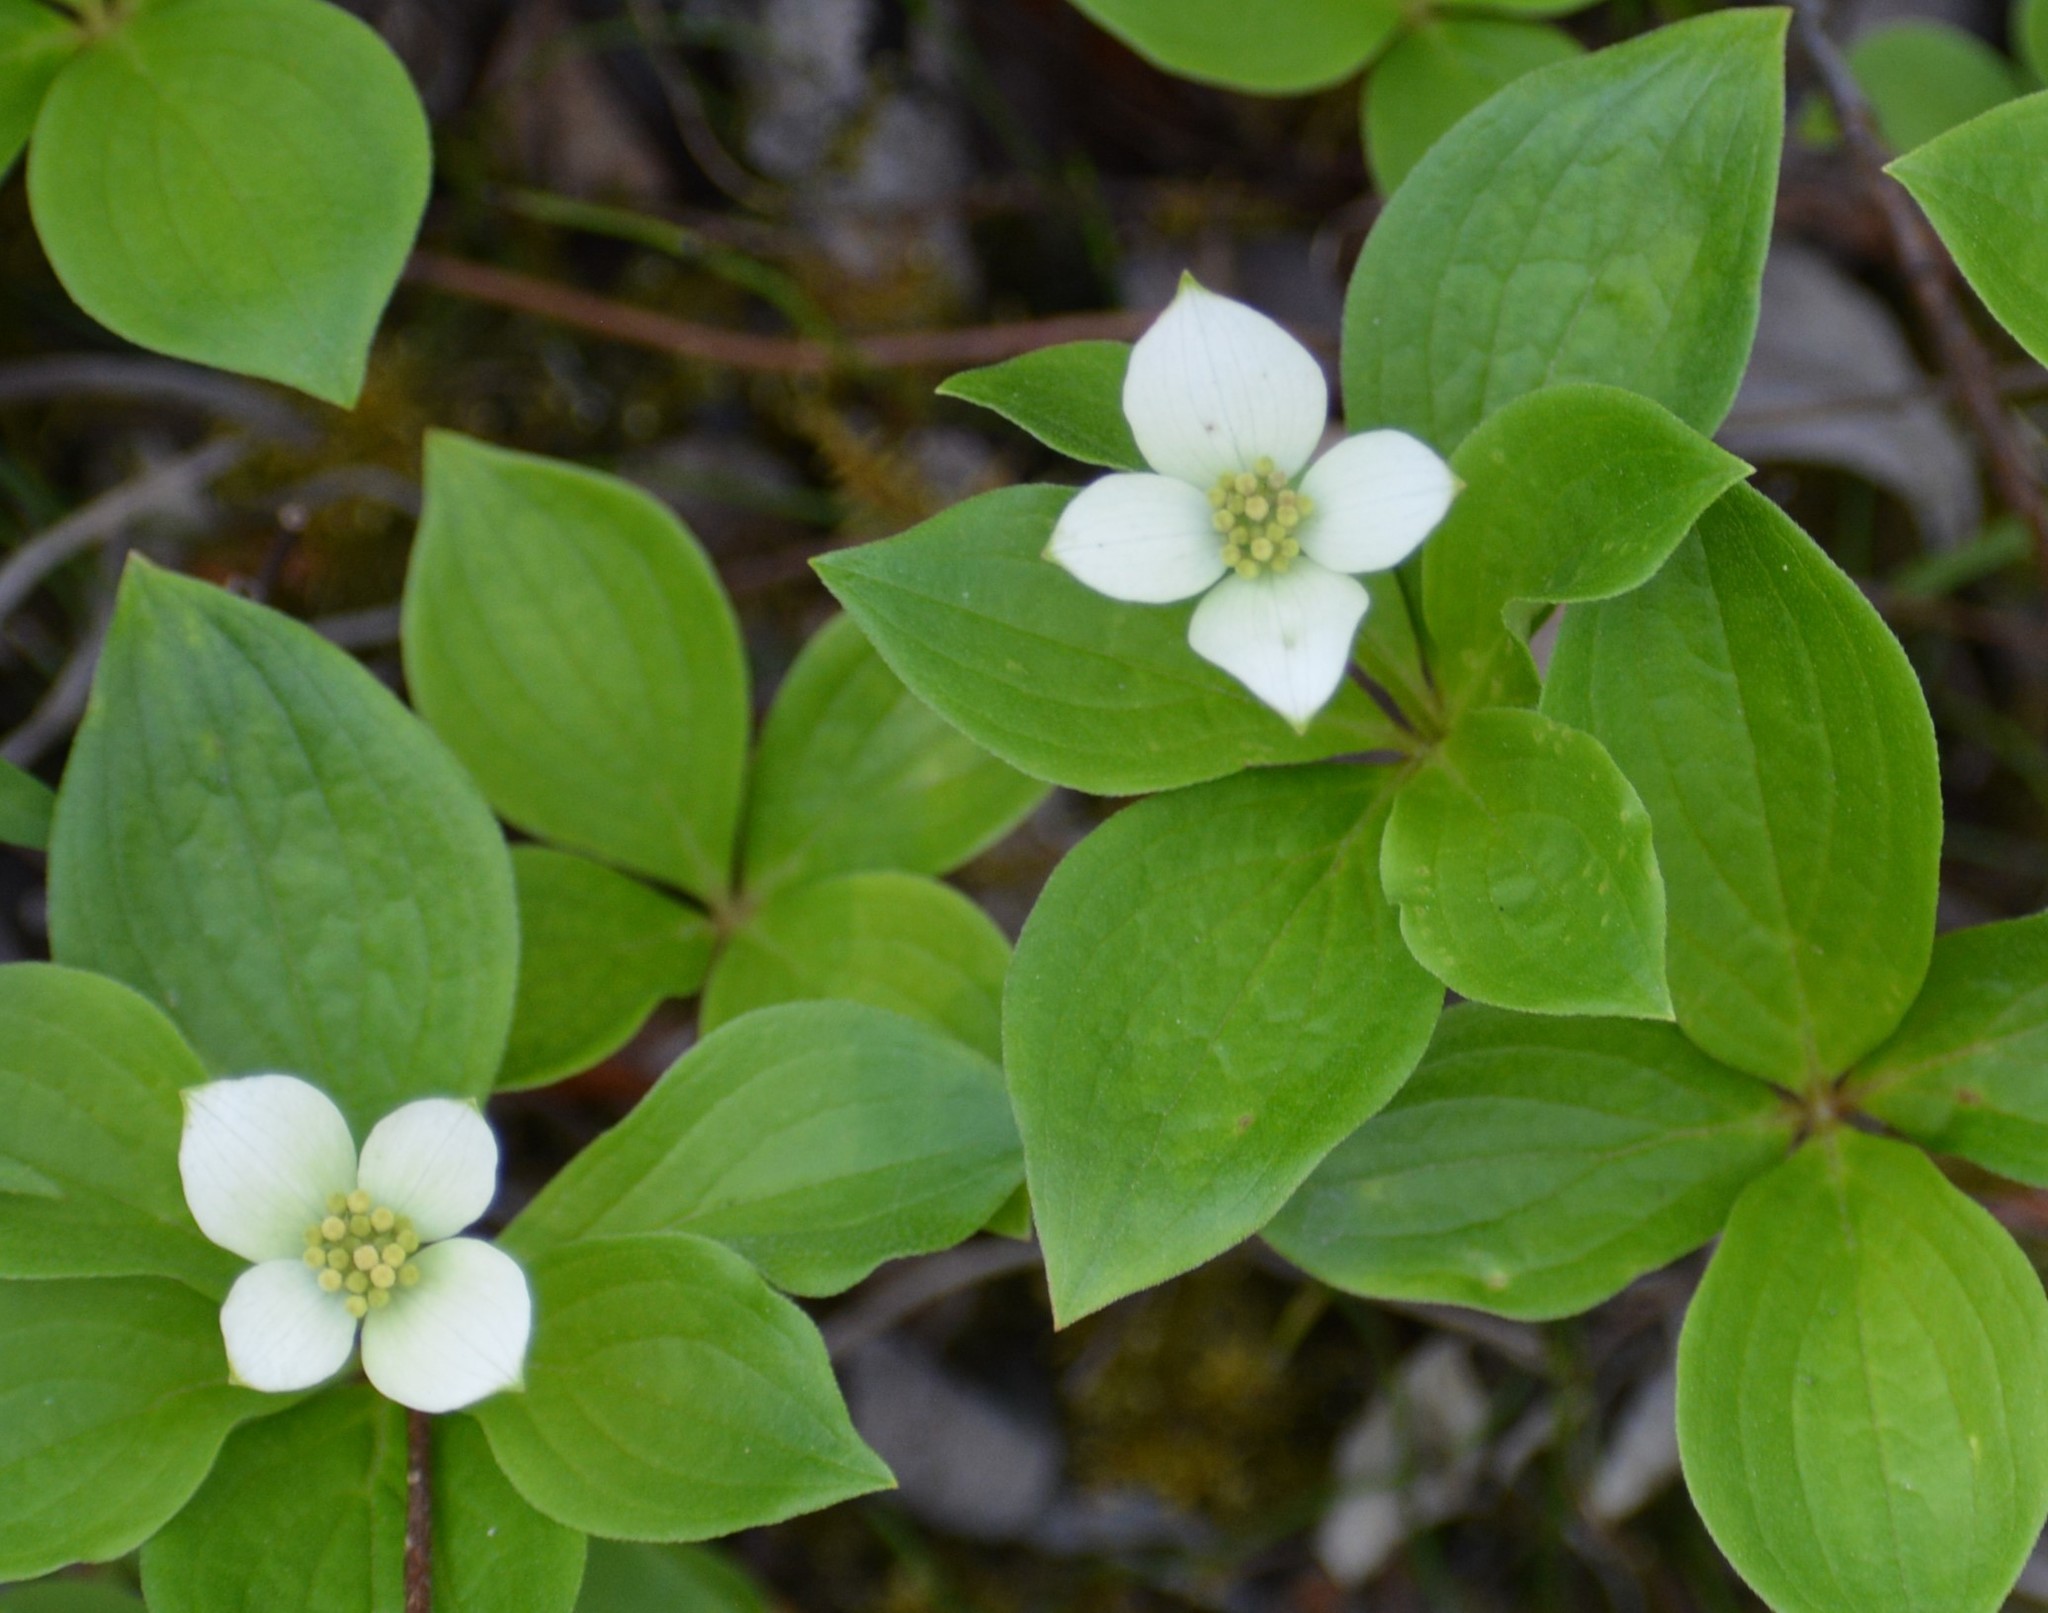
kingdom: Plantae
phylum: Tracheophyta
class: Magnoliopsida
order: Cornales
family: Cornaceae
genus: Cornus
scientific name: Cornus canadensis
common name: Creeping dogwood
